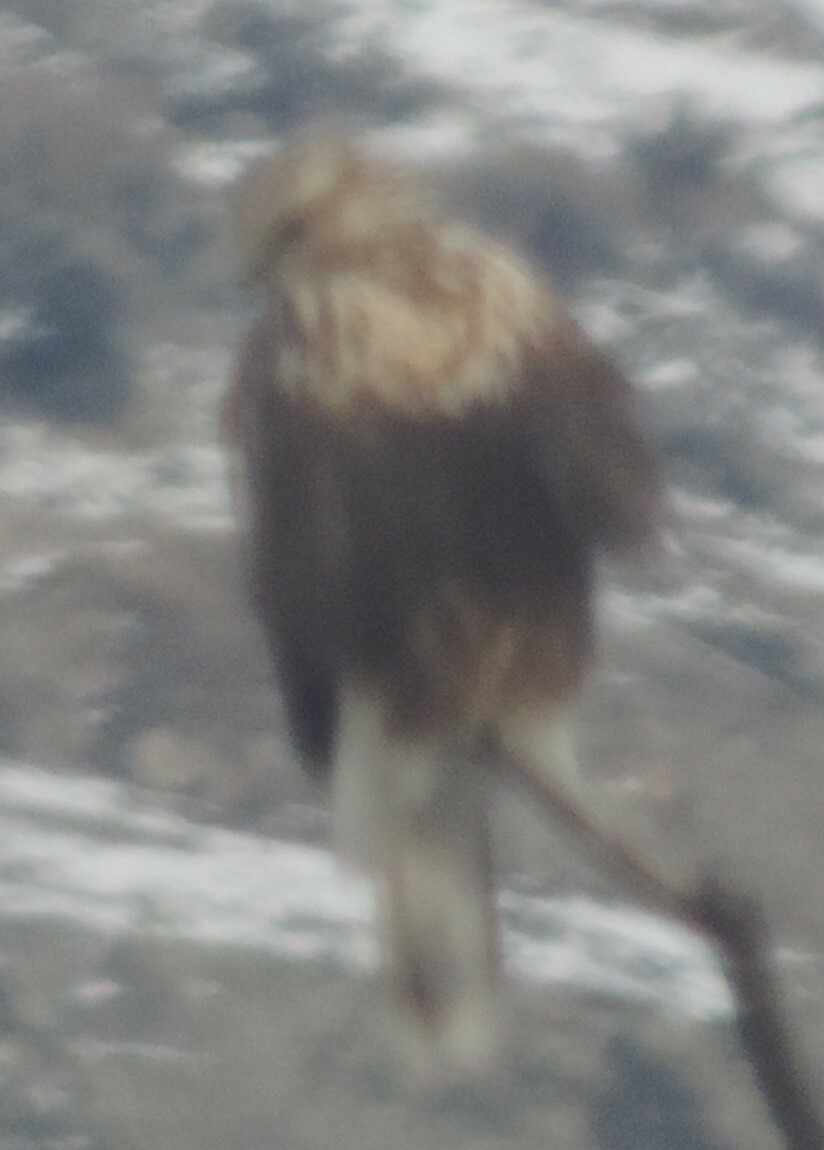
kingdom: Animalia
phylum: Chordata
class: Aves
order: Accipitriformes
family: Accipitridae
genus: Buteo
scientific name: Buteo lagopus
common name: Rough-legged buzzard
